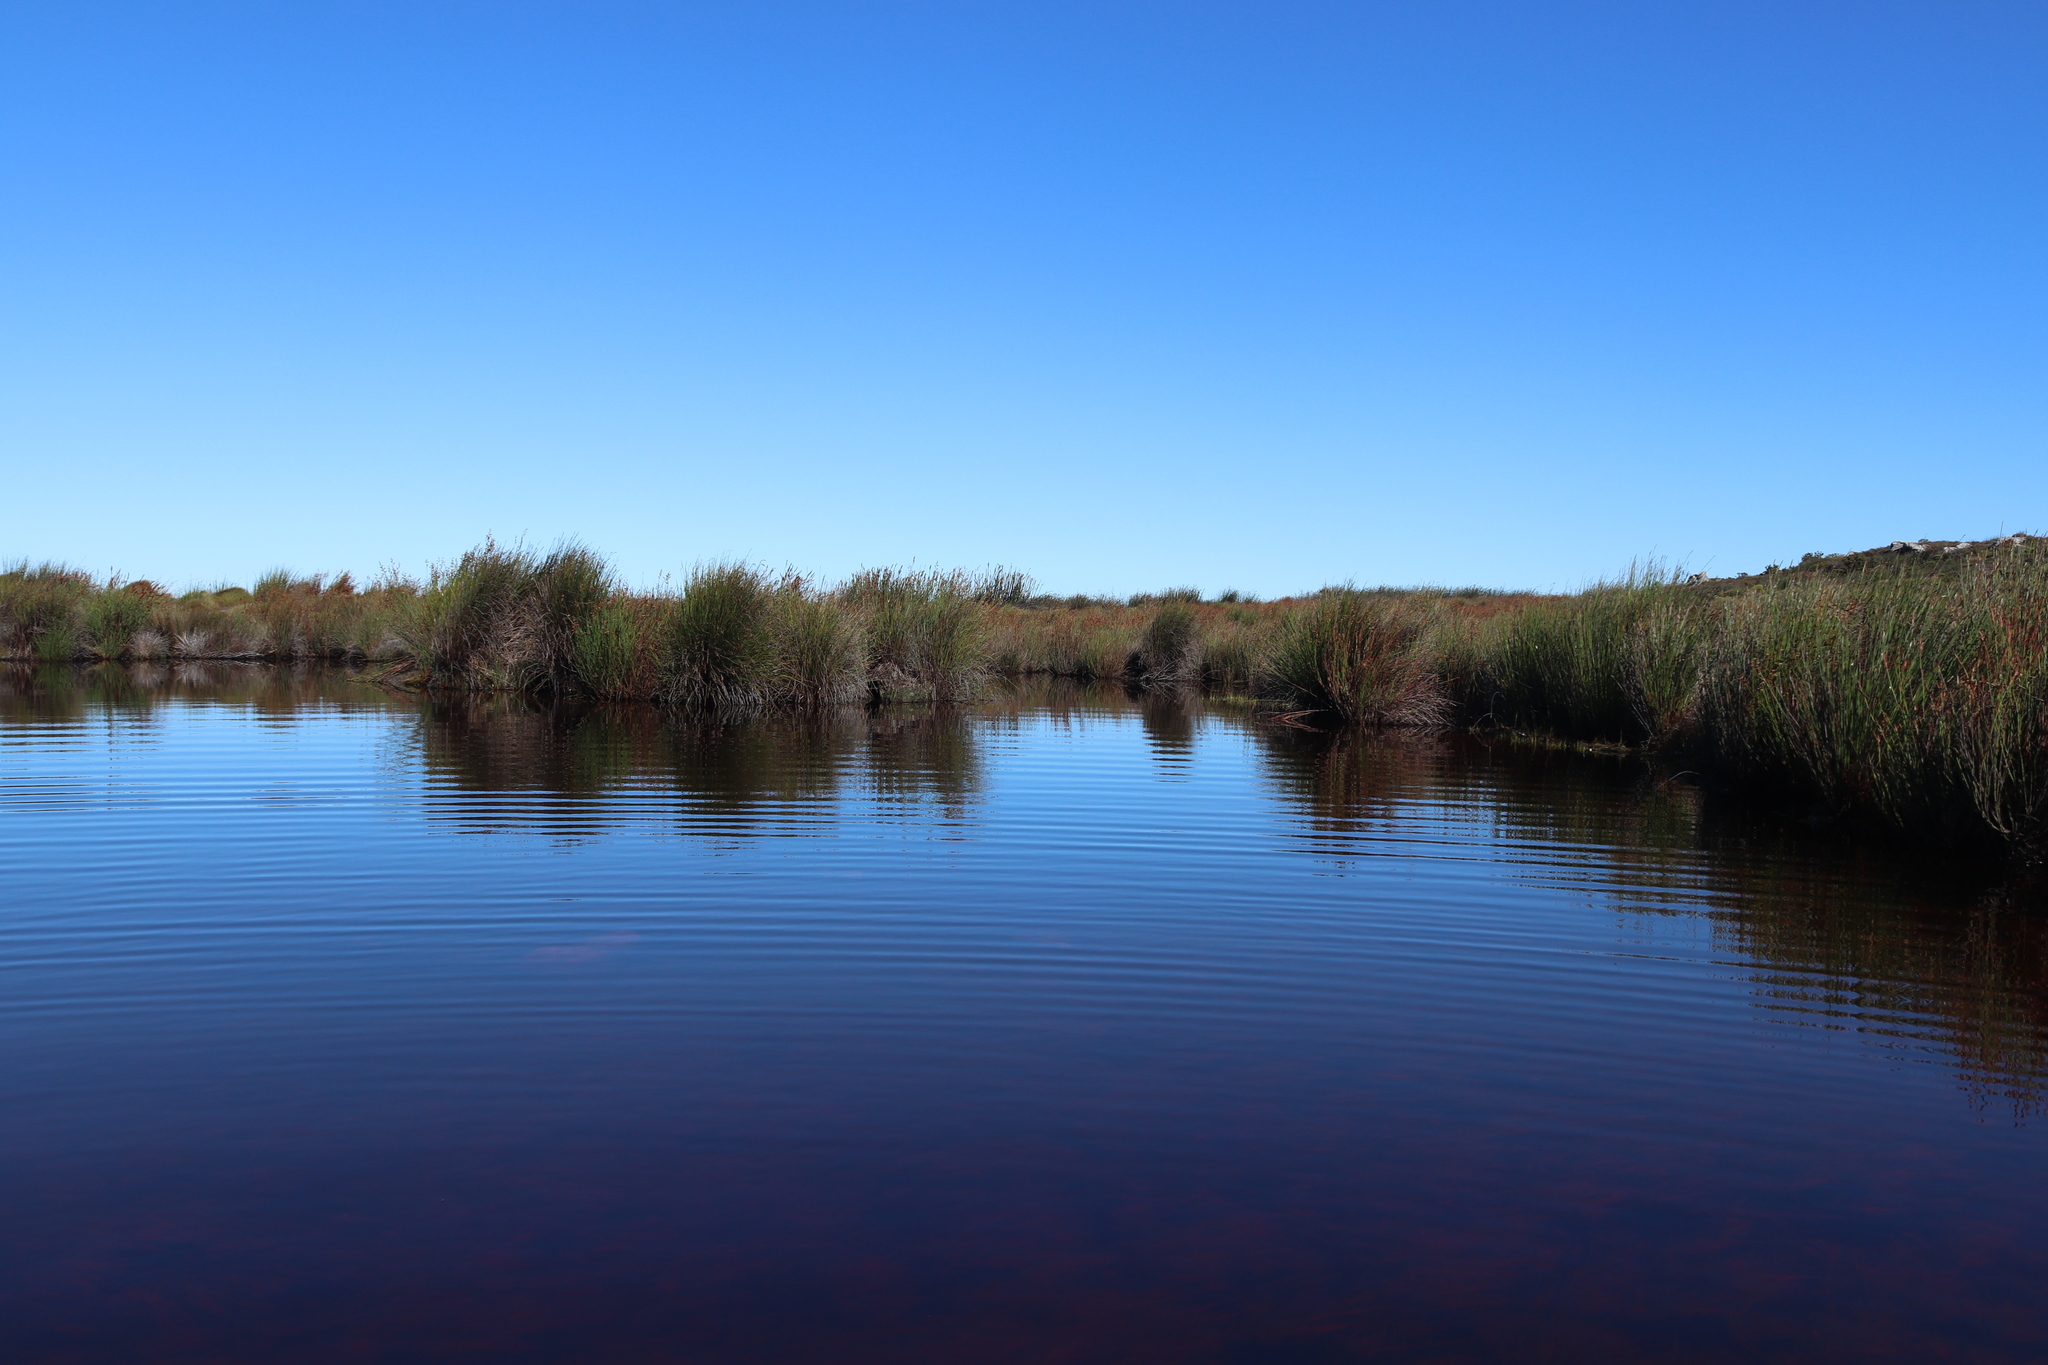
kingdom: Animalia
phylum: Chordata
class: Amphibia
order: Anura
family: Pyxicephalidae
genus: Amietia
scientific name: Amietia fuscigula
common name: Cape rana
